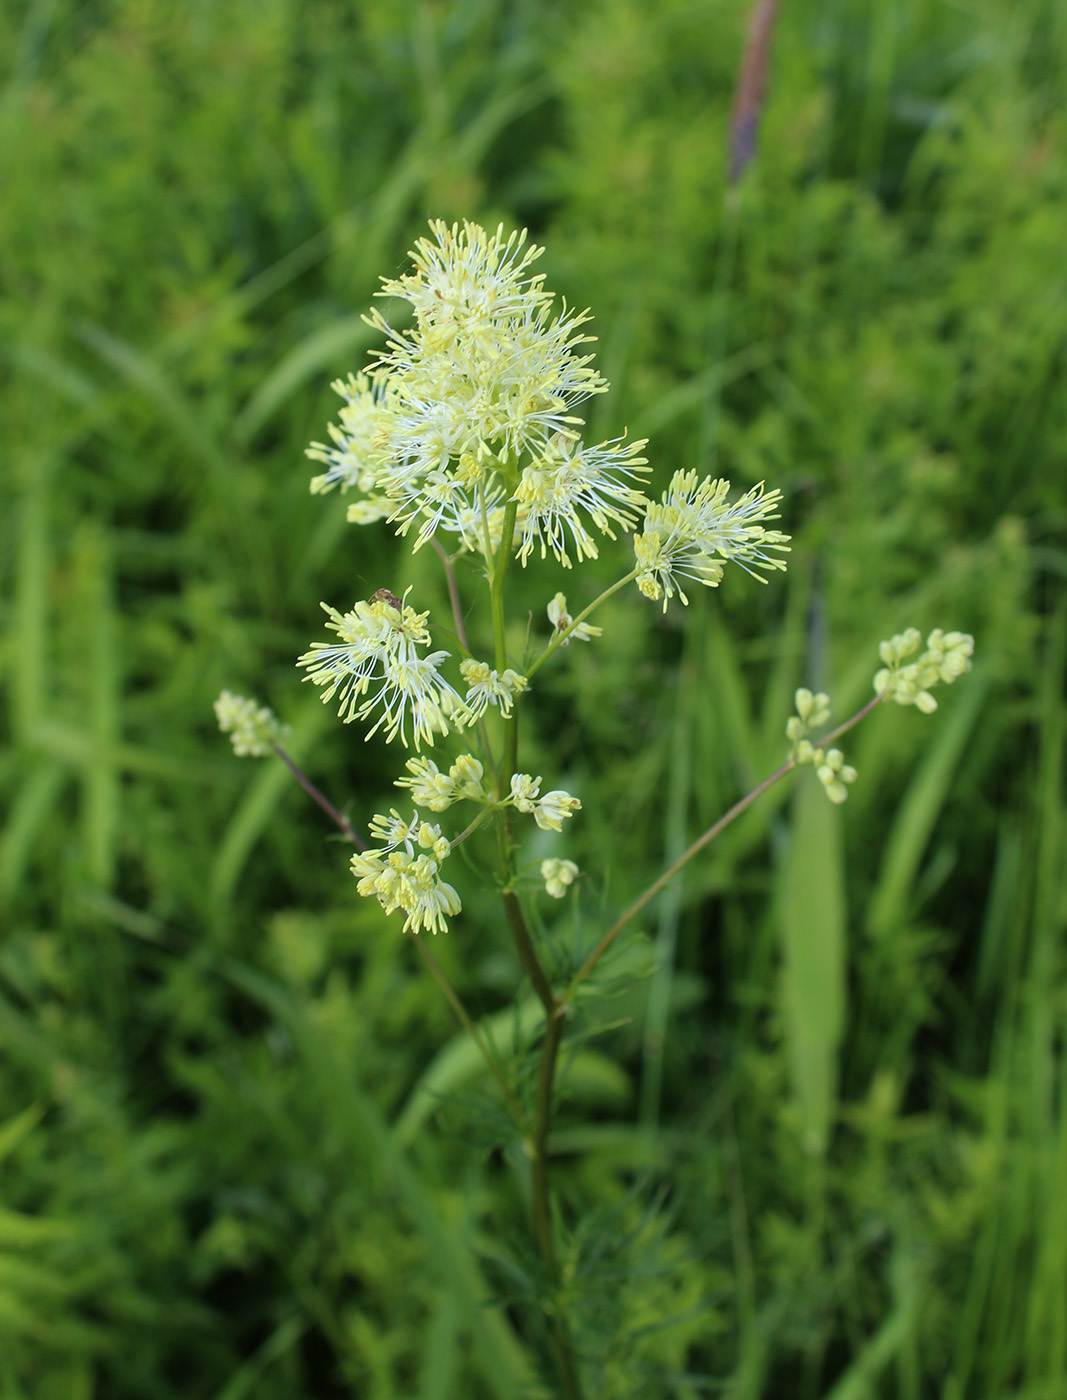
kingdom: Plantae
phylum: Tracheophyta
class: Magnoliopsida
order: Ranunculales
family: Ranunculaceae
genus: Thalictrum
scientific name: Thalictrum lucidum
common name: Shining meadow-rue
